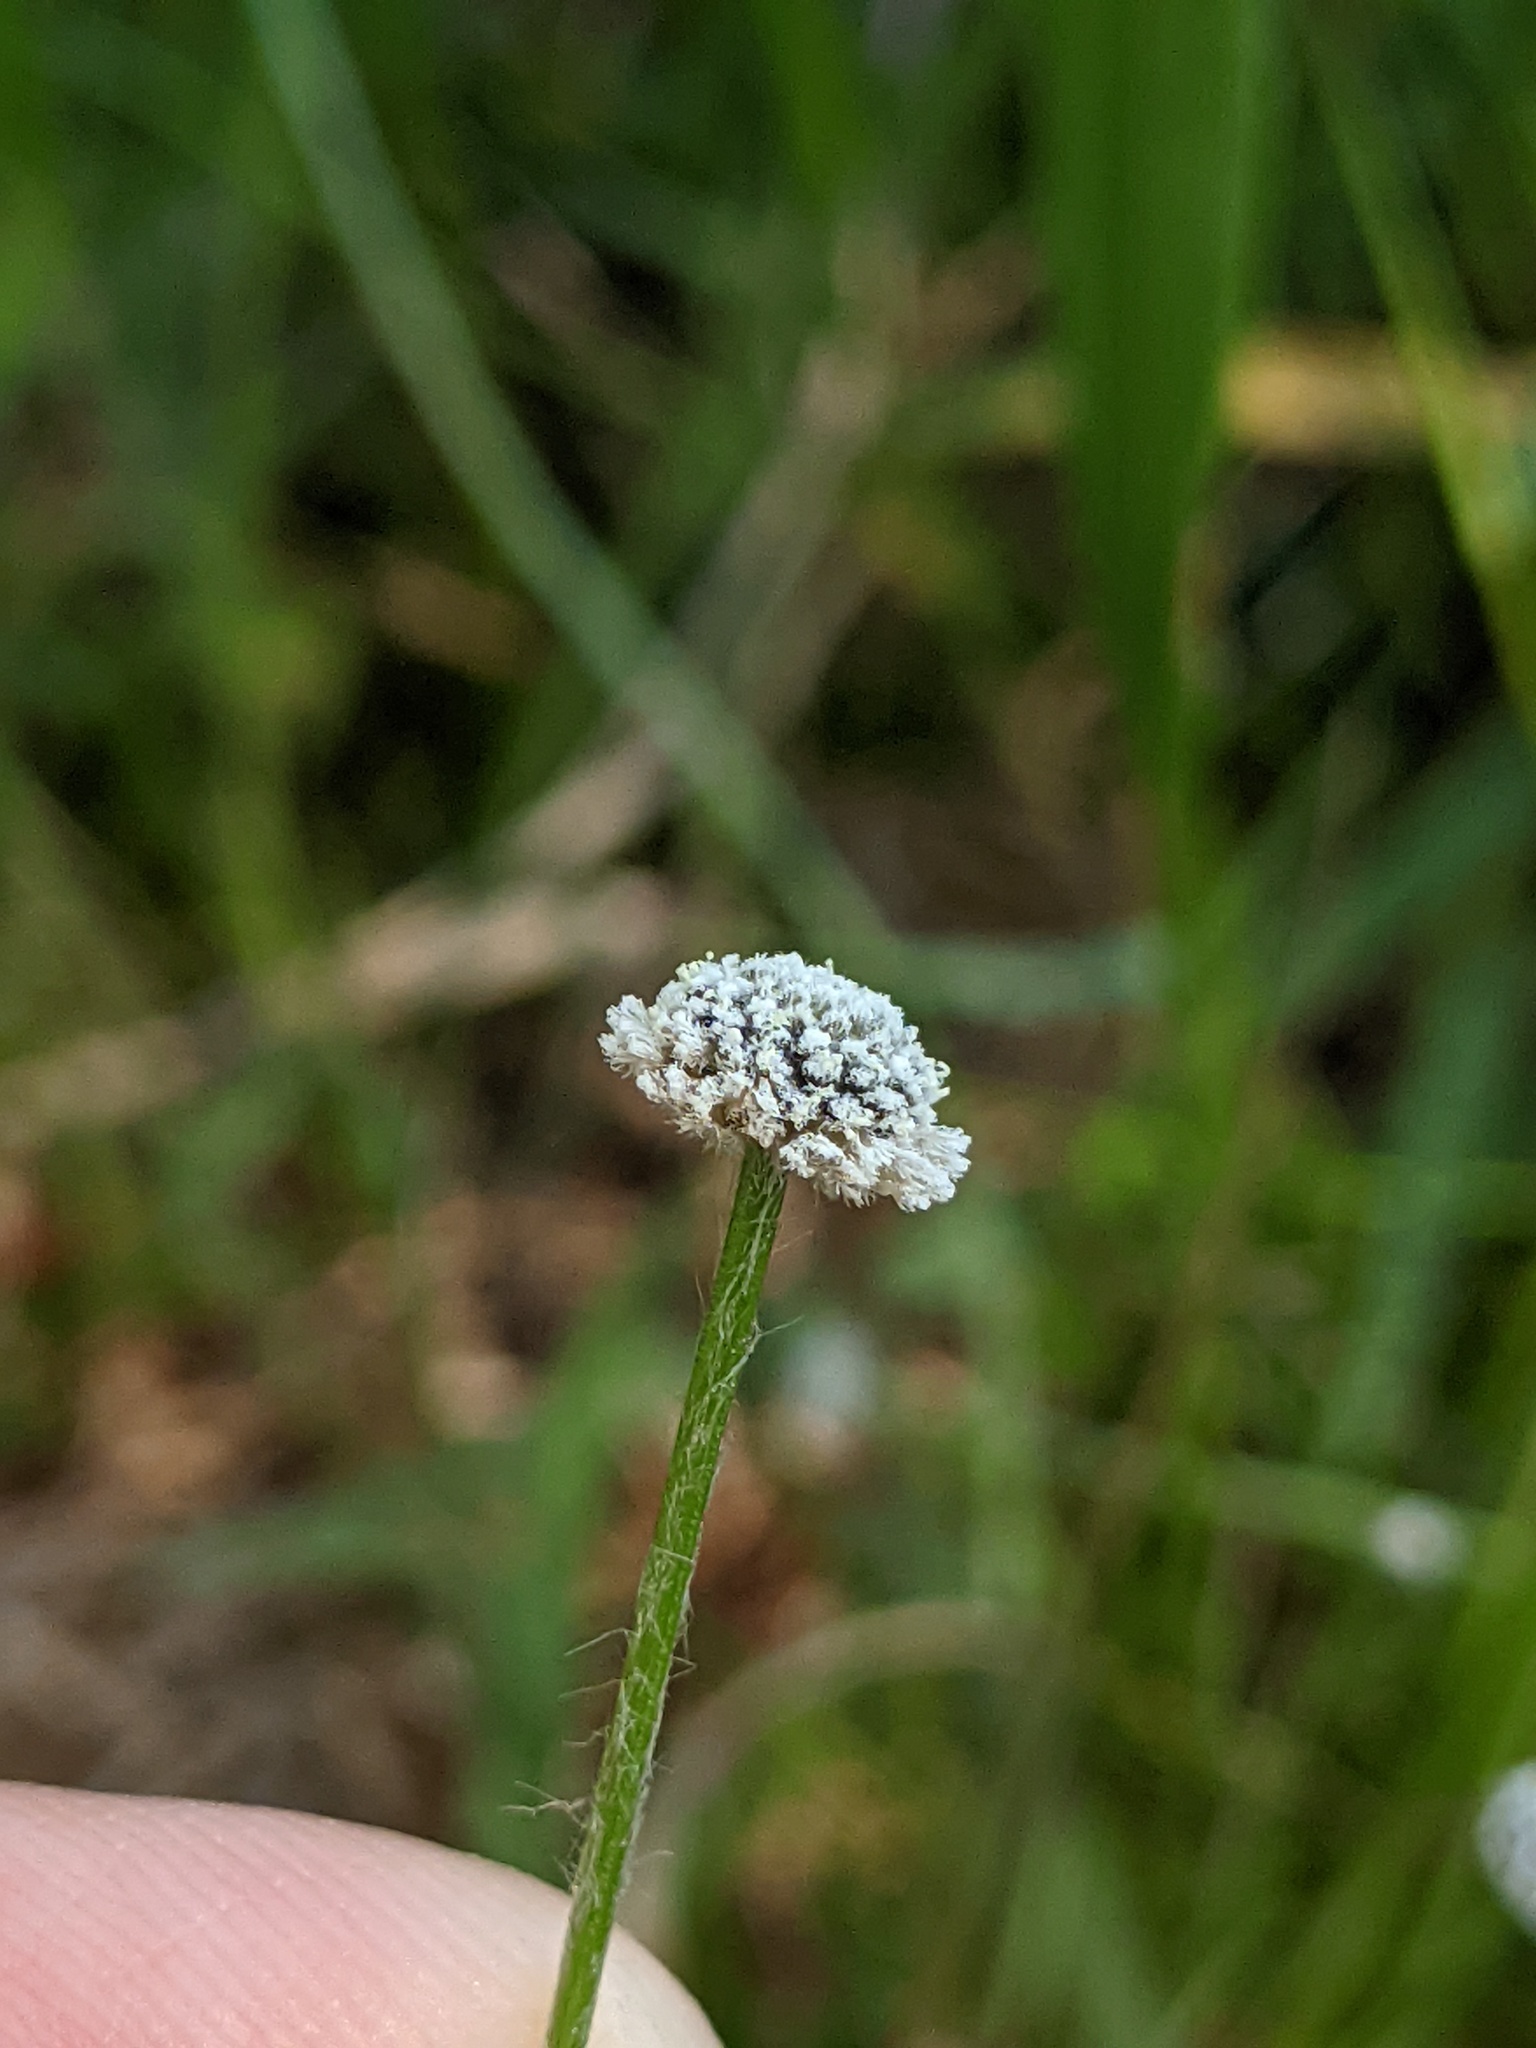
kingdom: Plantae
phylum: Tracheophyta
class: Liliopsida
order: Poales
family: Eriocaulaceae
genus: Paepalanthus
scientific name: Paepalanthus anceps
